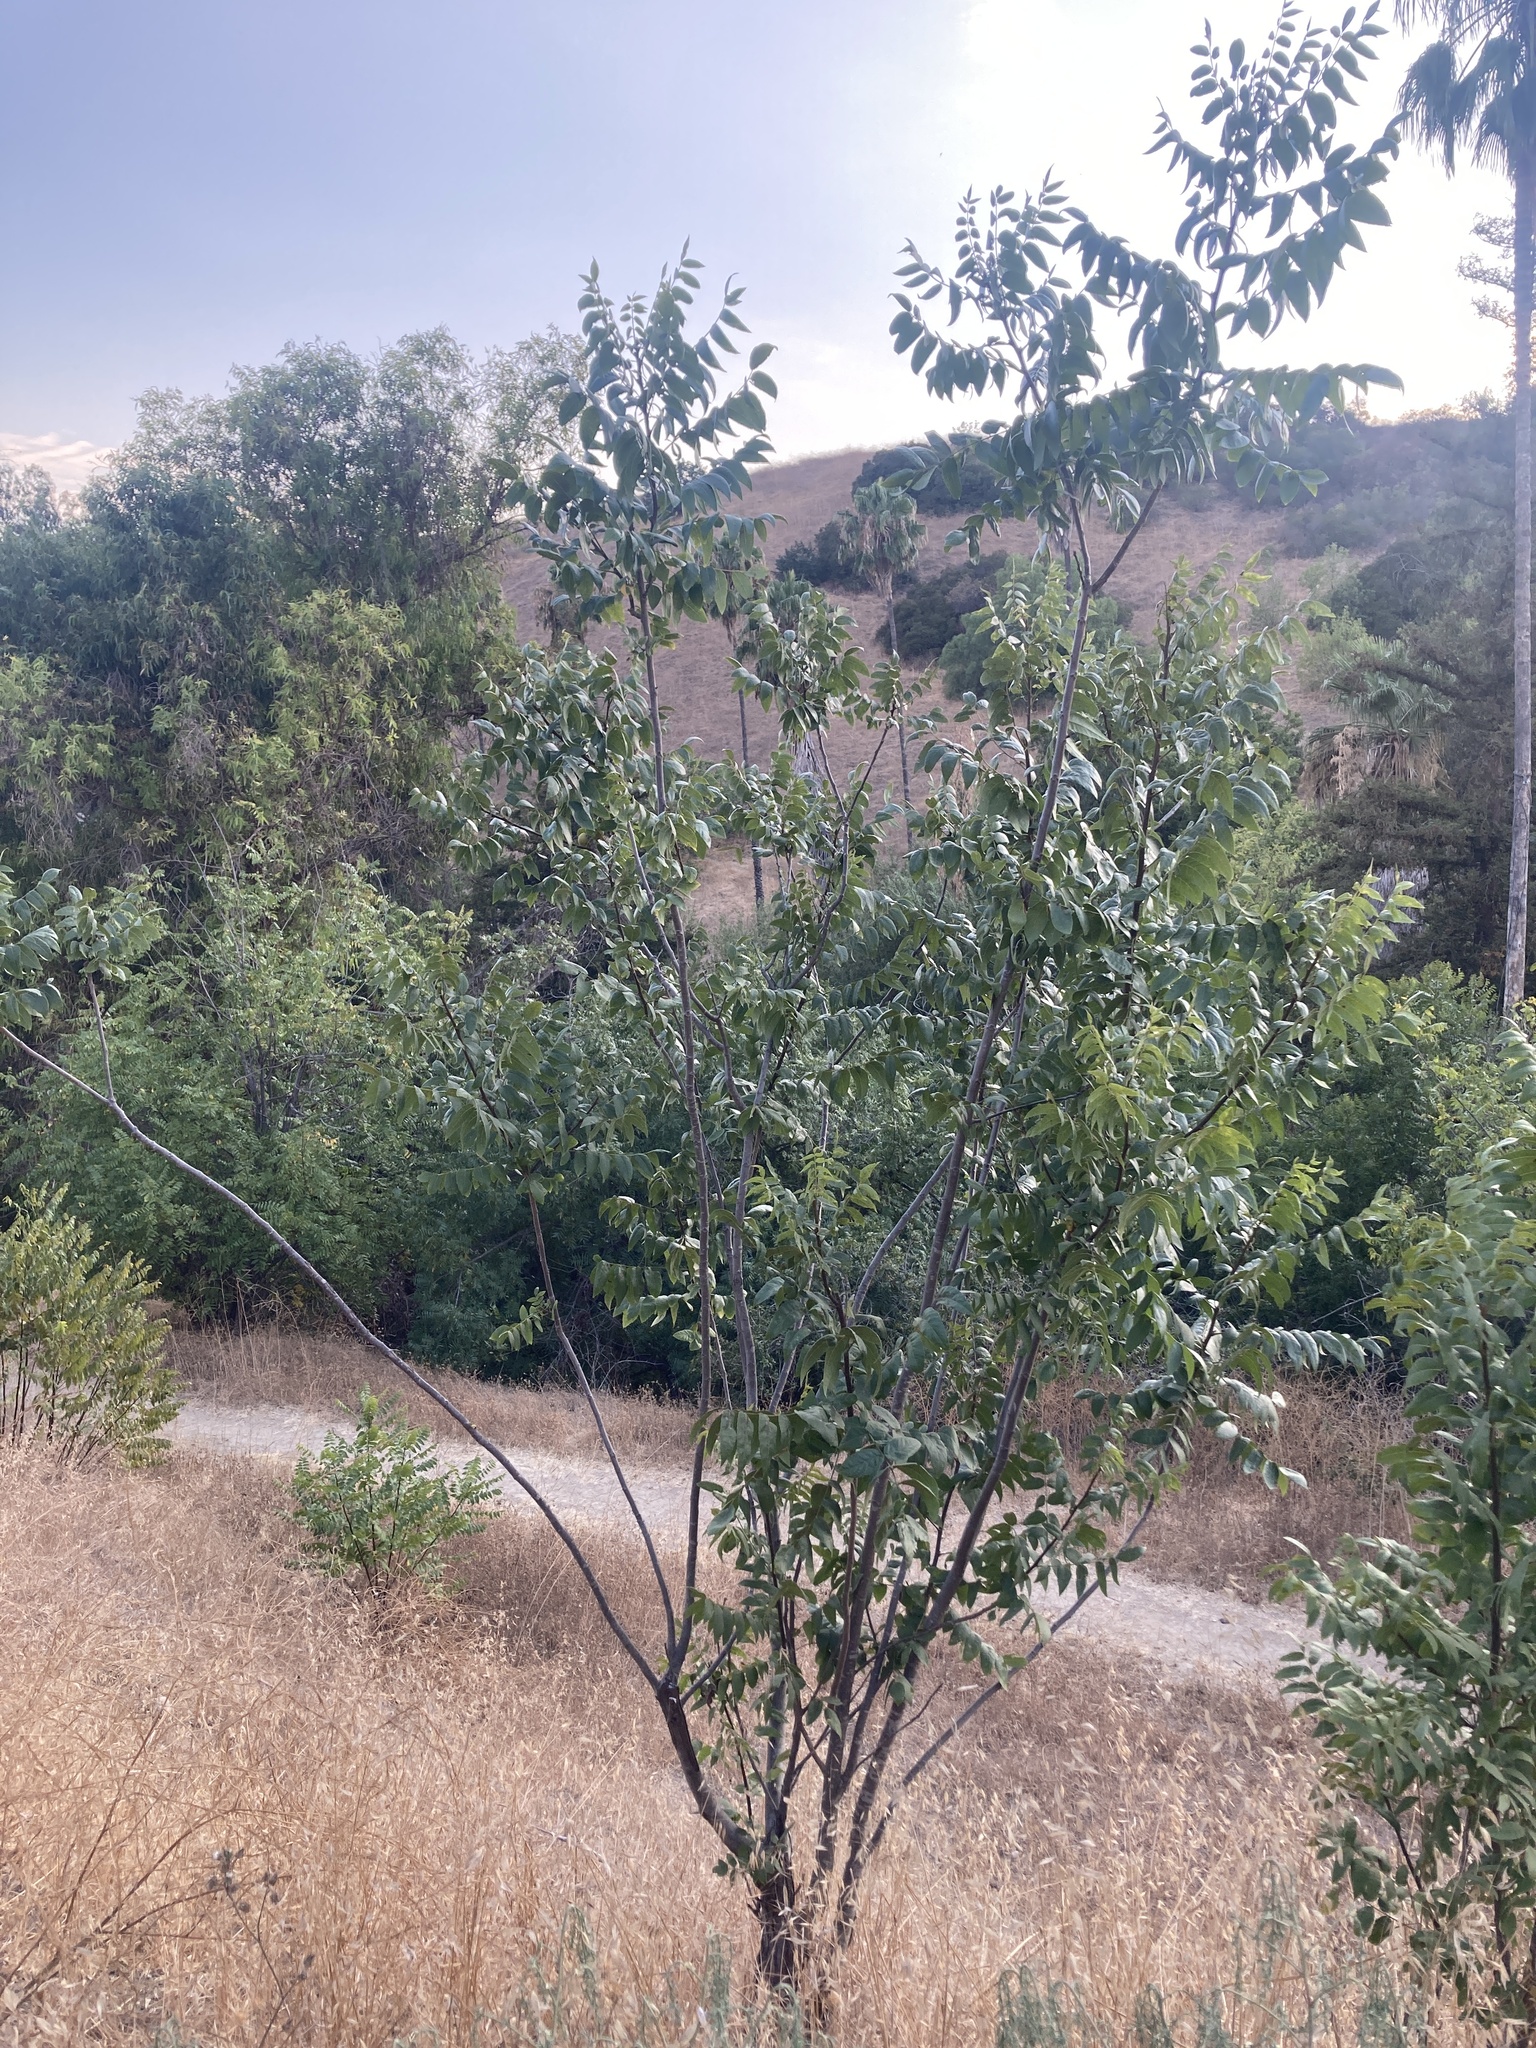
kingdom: Plantae
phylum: Tracheophyta
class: Magnoliopsida
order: Fagales
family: Juglandaceae
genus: Juglans
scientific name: Juglans californica
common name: Southern california black walnut
